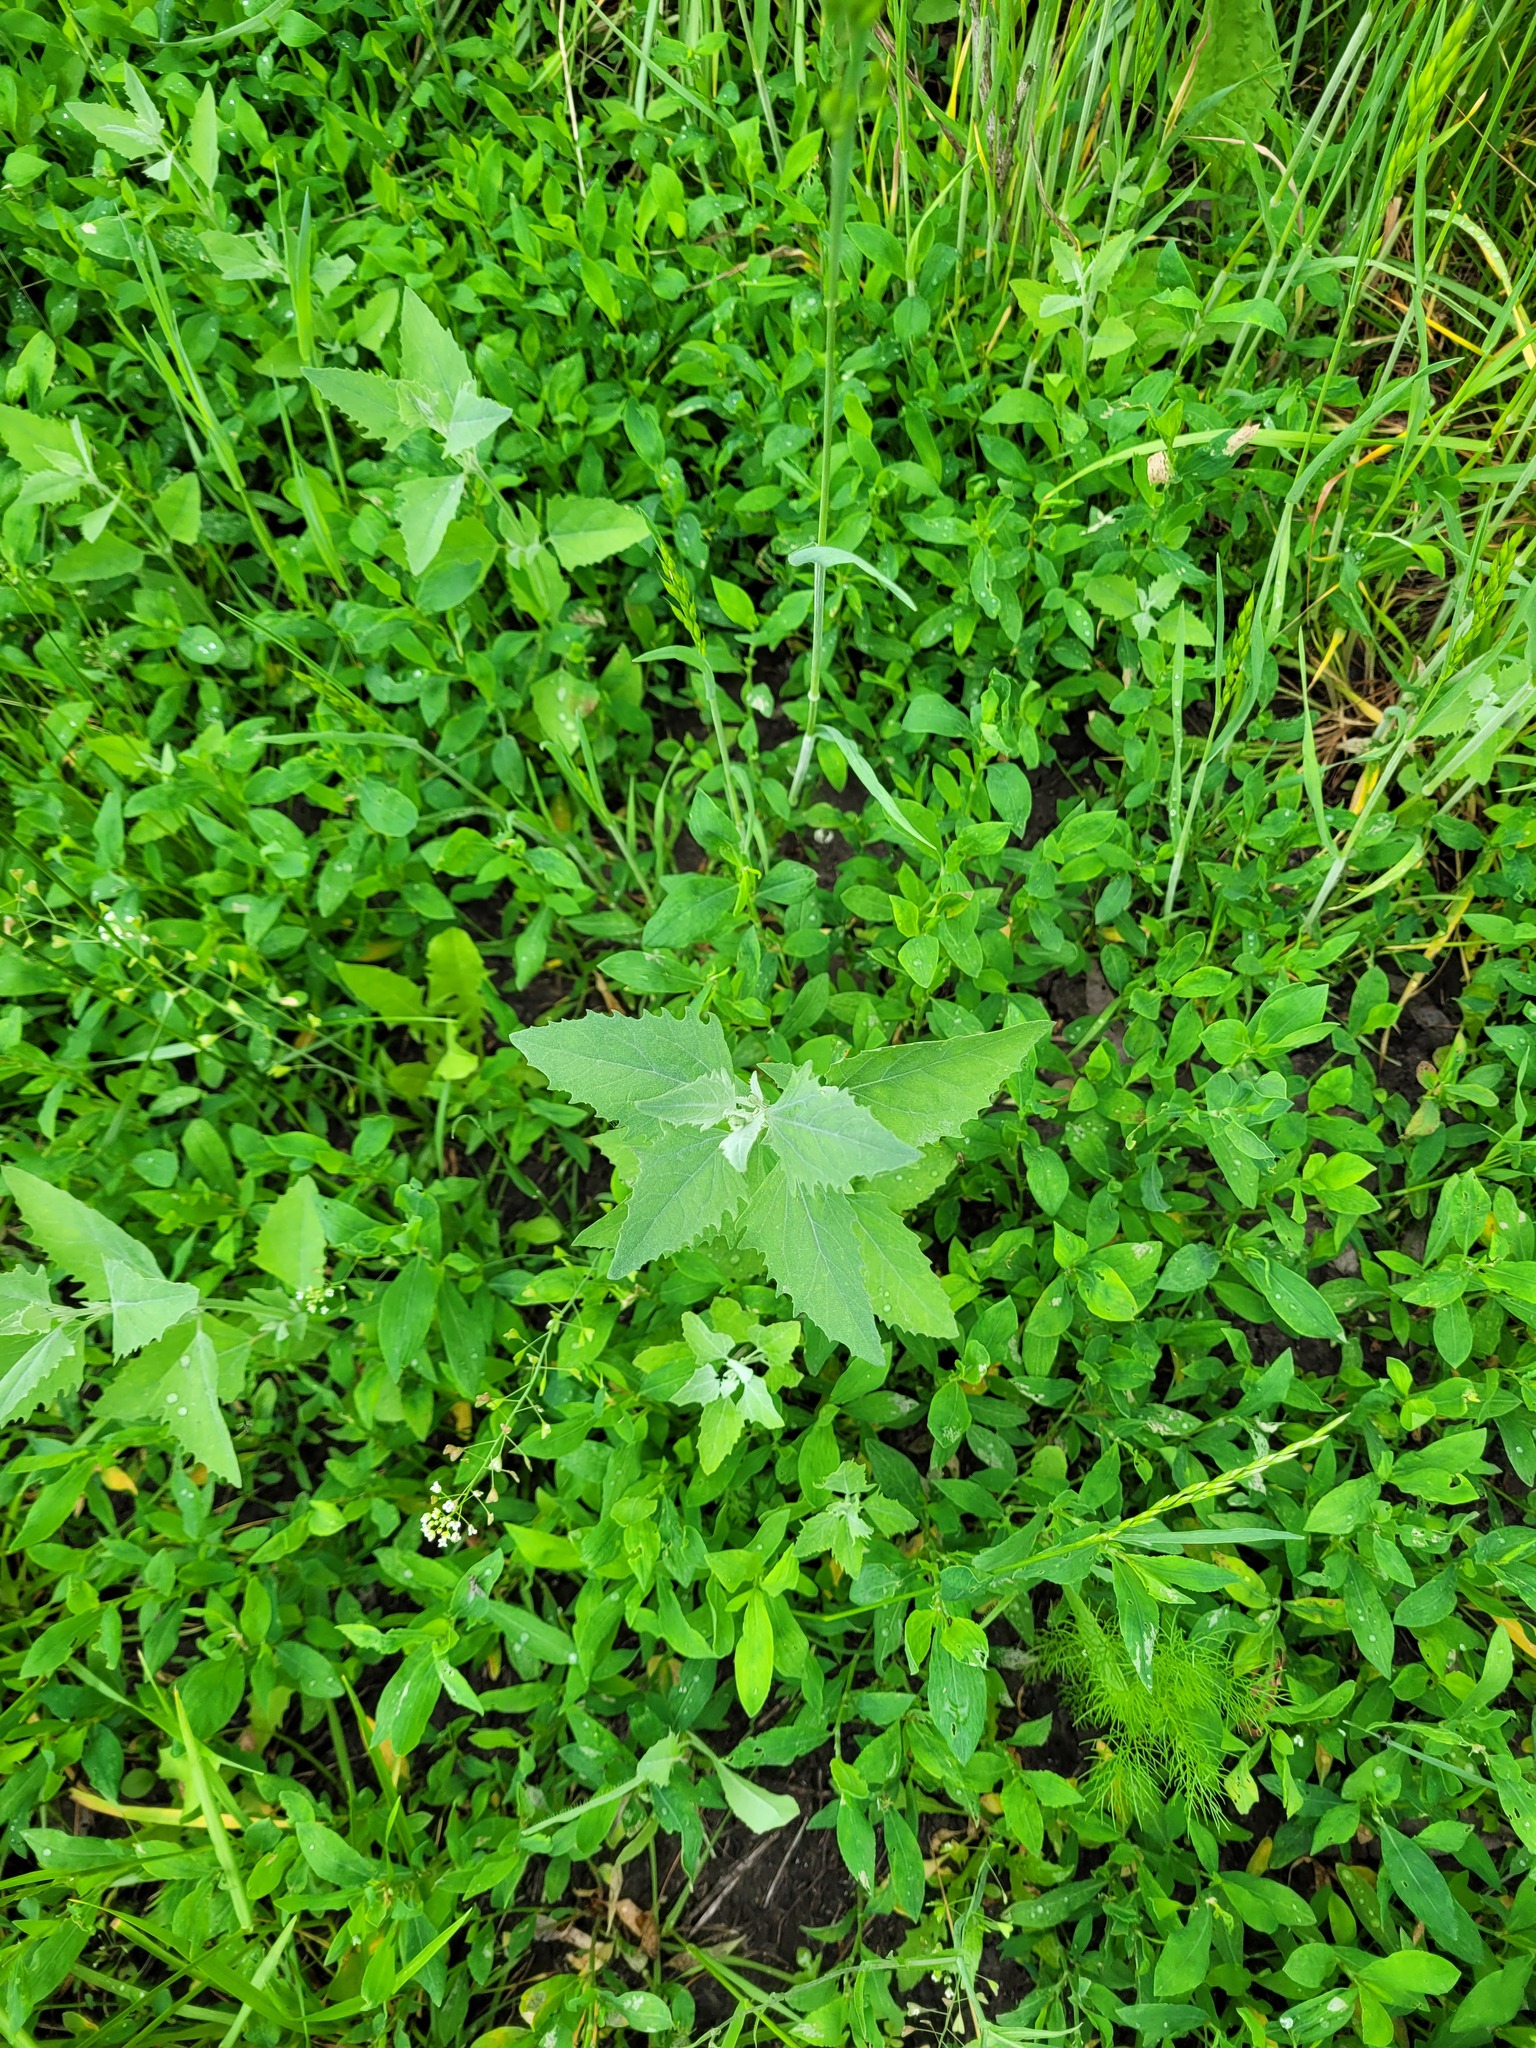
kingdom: Plantae
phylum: Tracheophyta
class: Magnoliopsida
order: Caryophyllales
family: Amaranthaceae
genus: Atriplex
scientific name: Atriplex oblongifolia
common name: Oblongleaf orache
